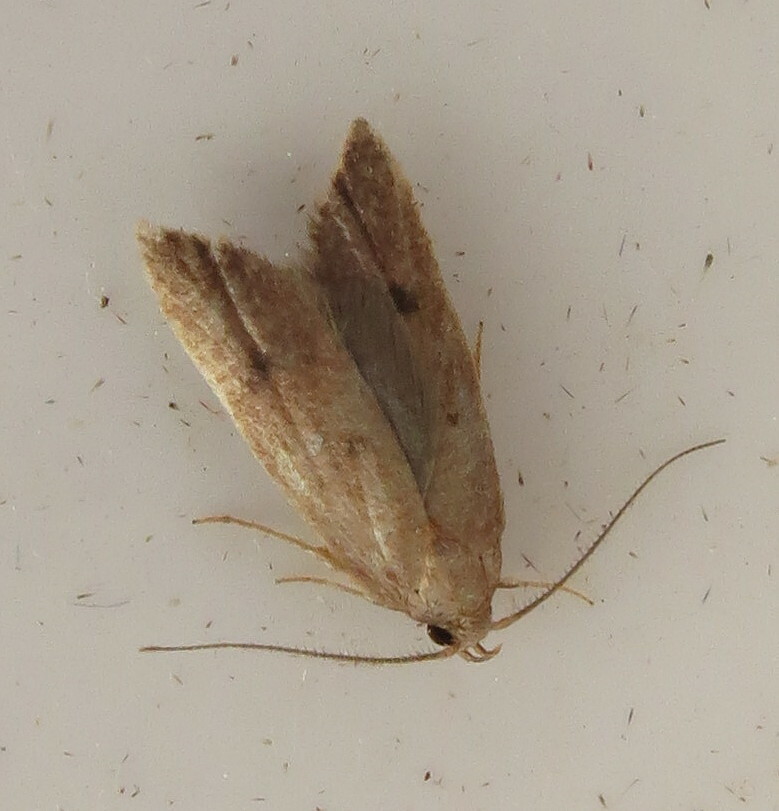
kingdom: Animalia
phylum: Arthropoda
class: Insecta
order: Lepidoptera
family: Oecophoridae
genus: Tachystola
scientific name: Tachystola acroxantha
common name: Ruddy streak
